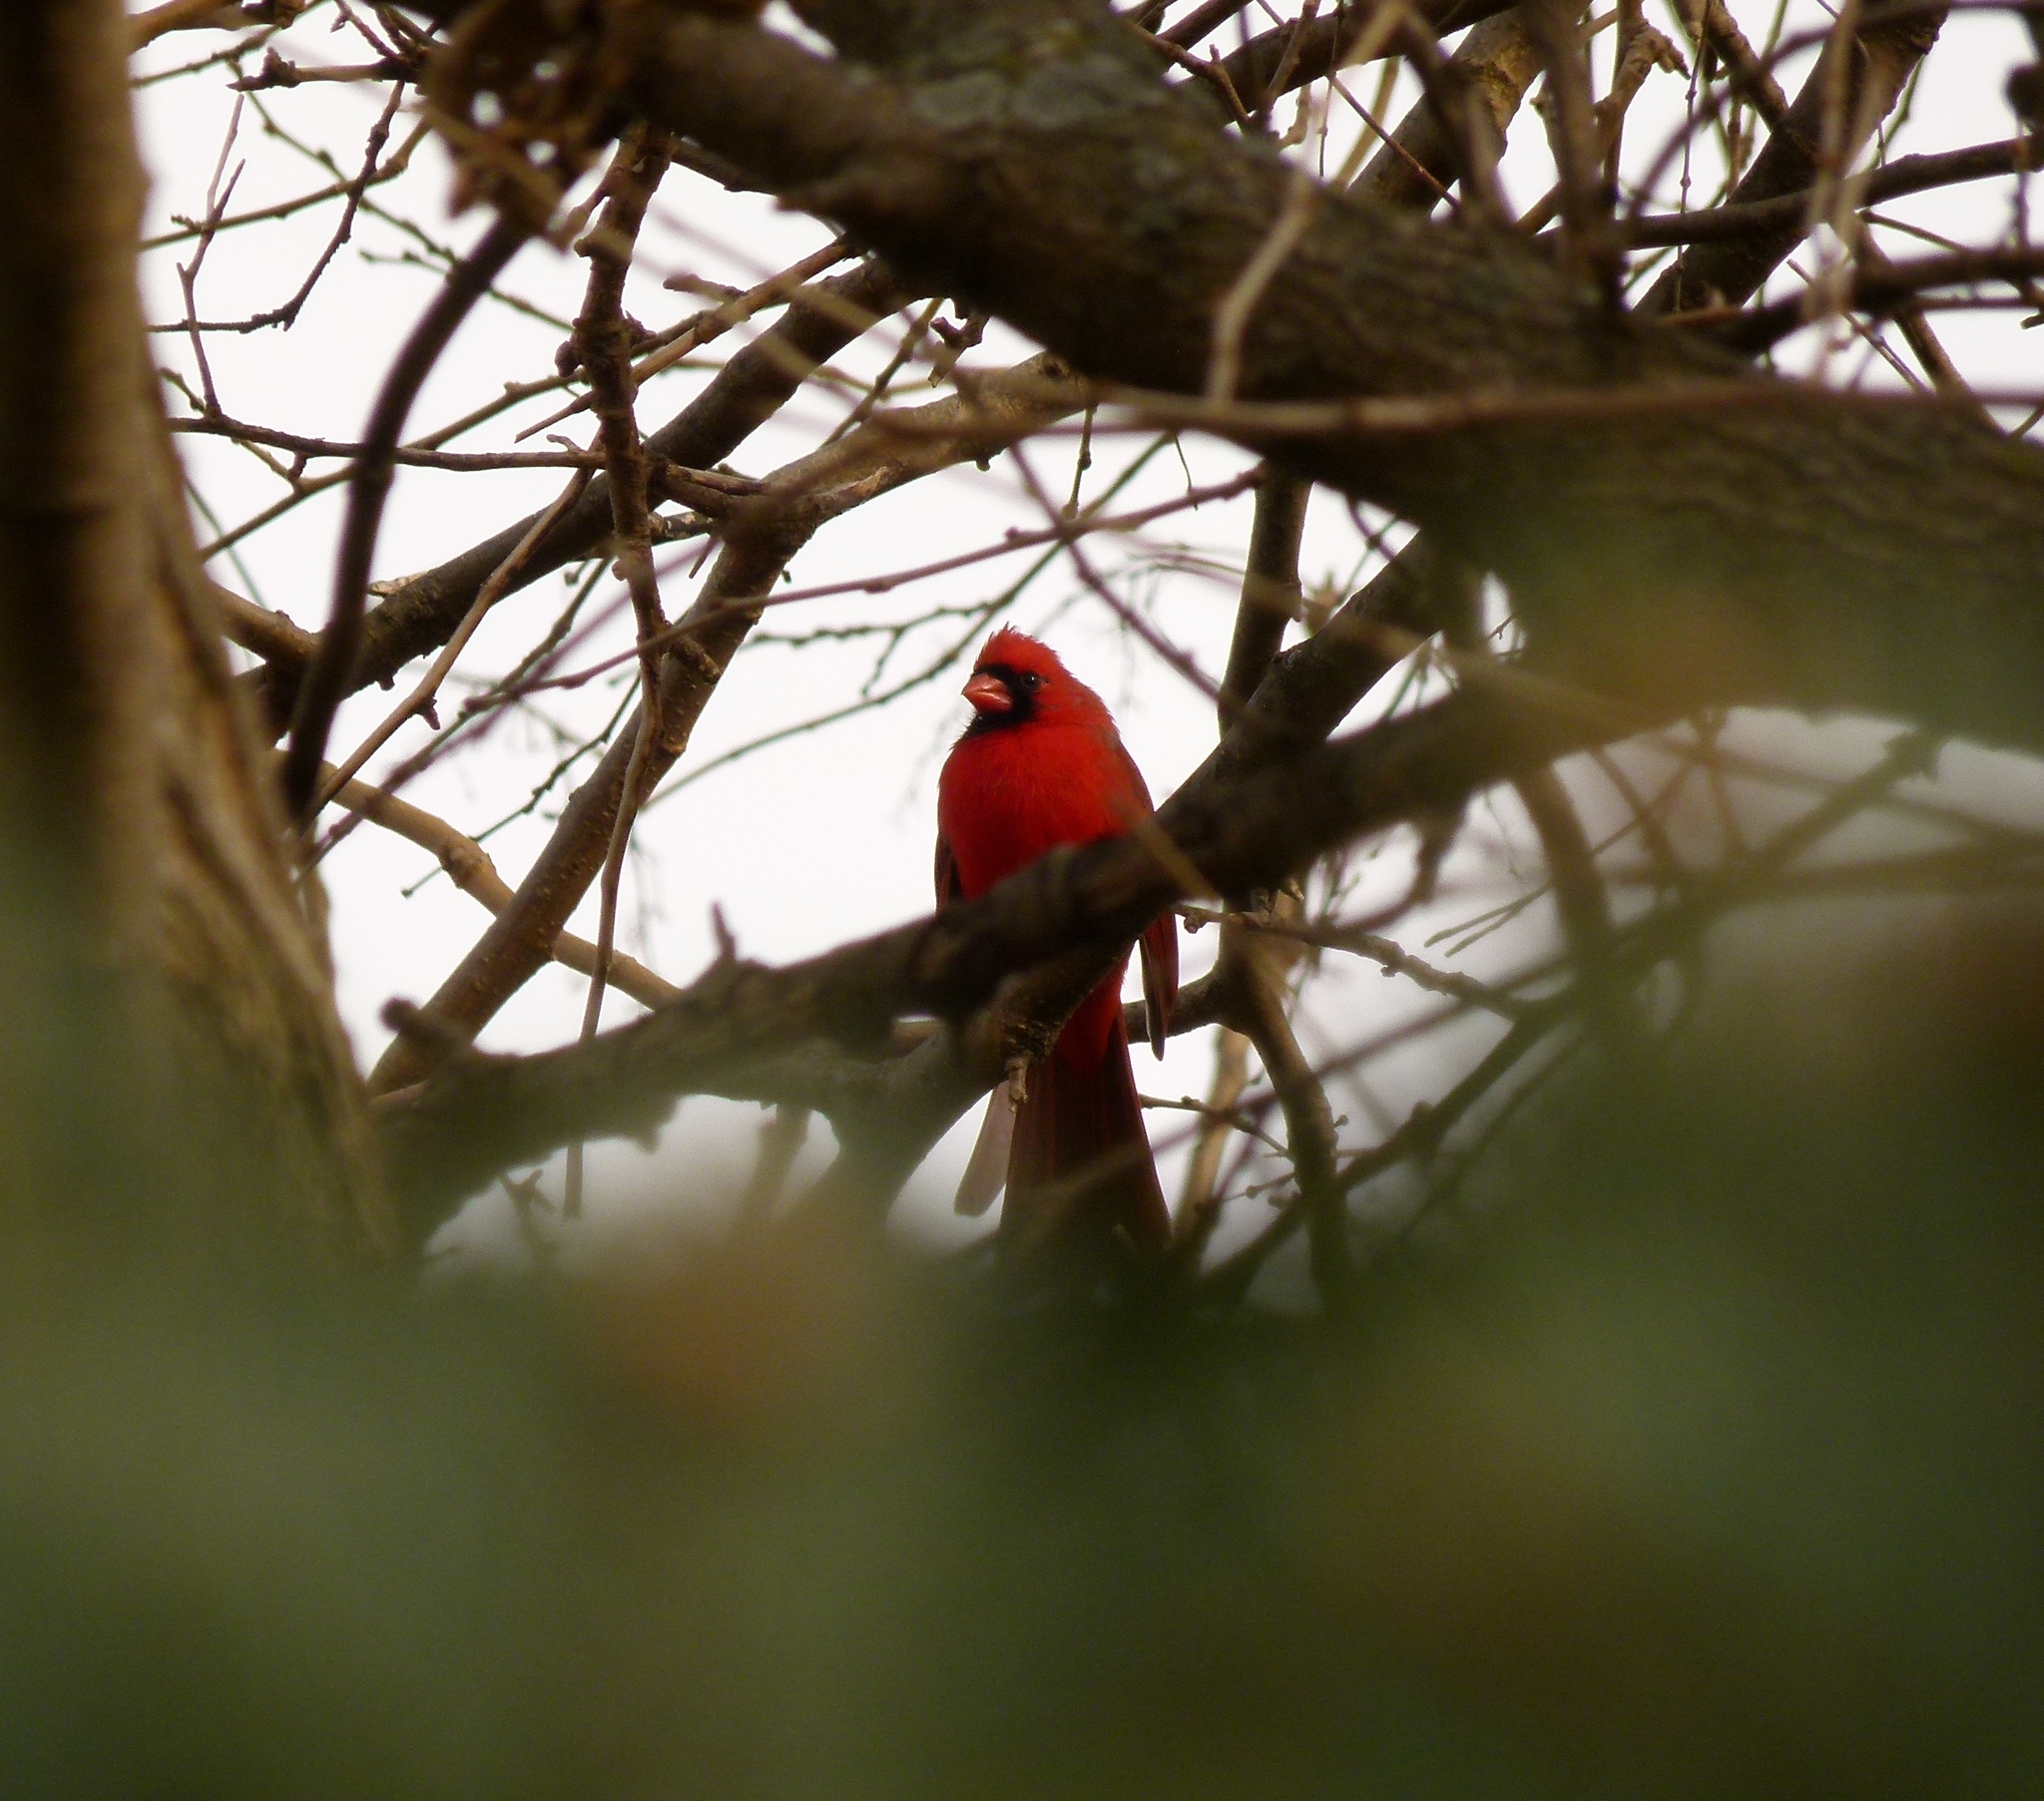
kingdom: Animalia
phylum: Chordata
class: Aves
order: Passeriformes
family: Cardinalidae
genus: Cardinalis
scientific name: Cardinalis cardinalis
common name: Northern cardinal
